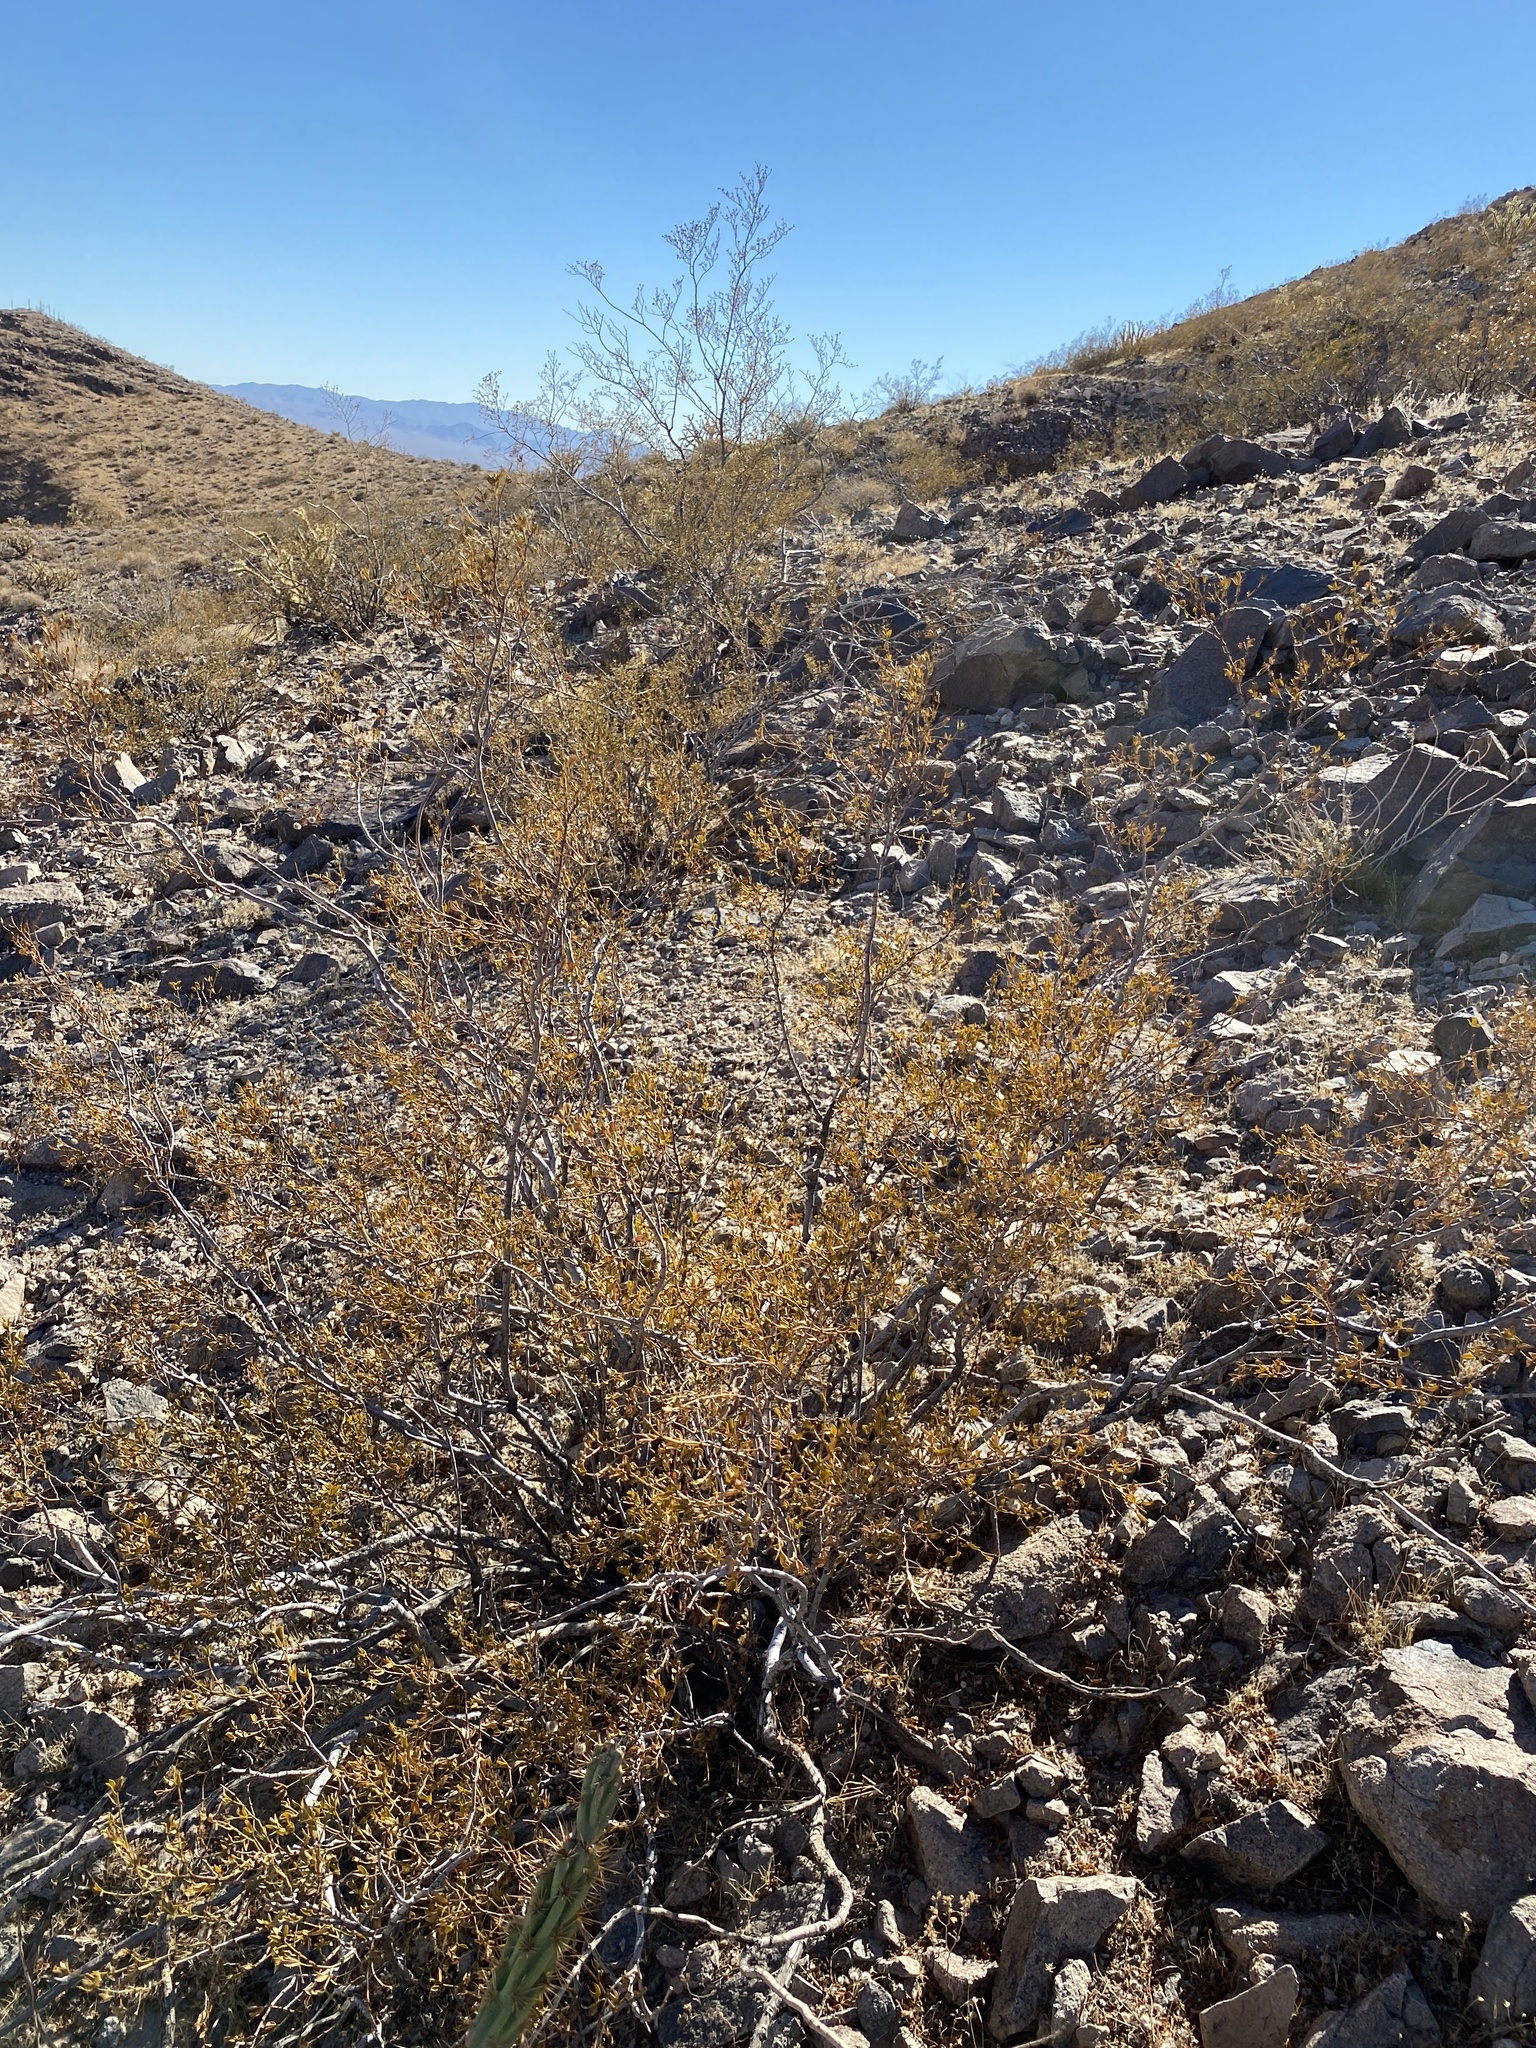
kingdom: Plantae
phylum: Tracheophyta
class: Magnoliopsida
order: Zygophyllales
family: Zygophyllaceae
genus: Larrea
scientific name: Larrea tridentata
